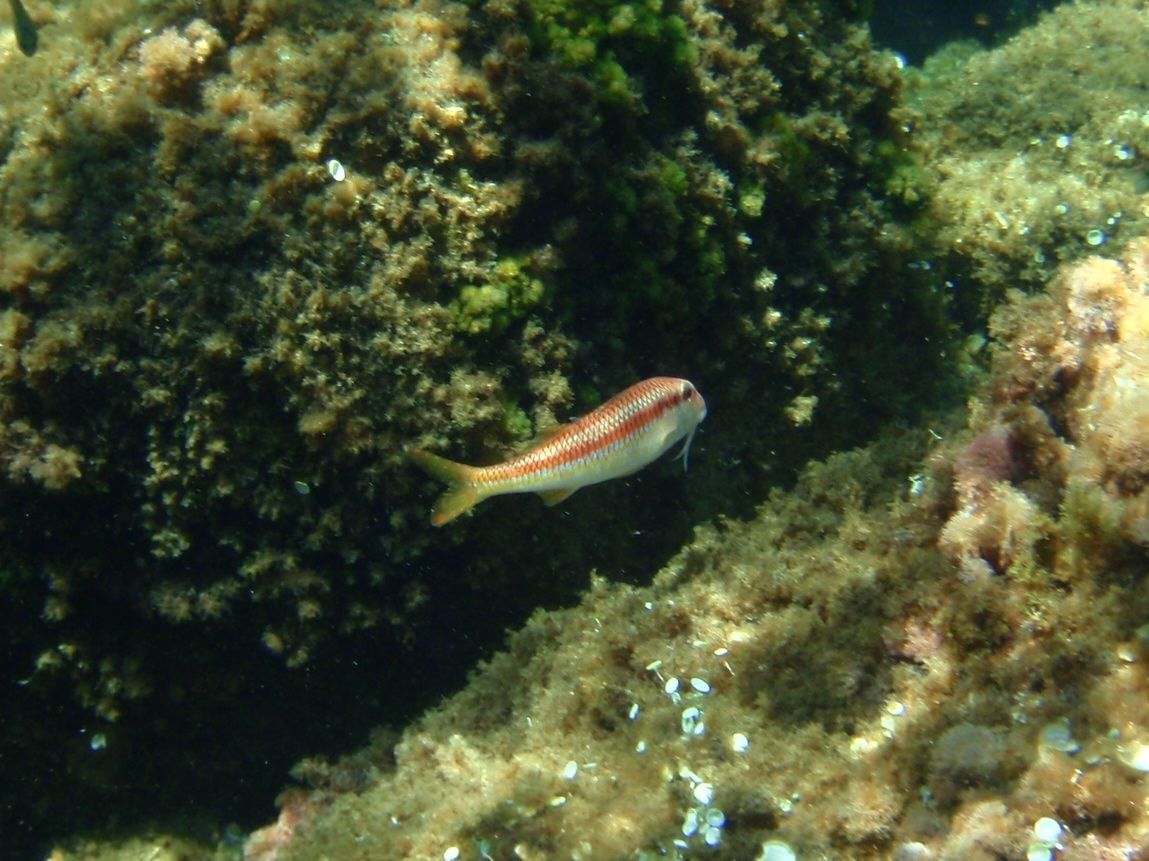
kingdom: Animalia
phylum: Chordata
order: Perciformes
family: Mullidae
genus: Mullus
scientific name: Mullus surmuletus
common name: Red mullet
